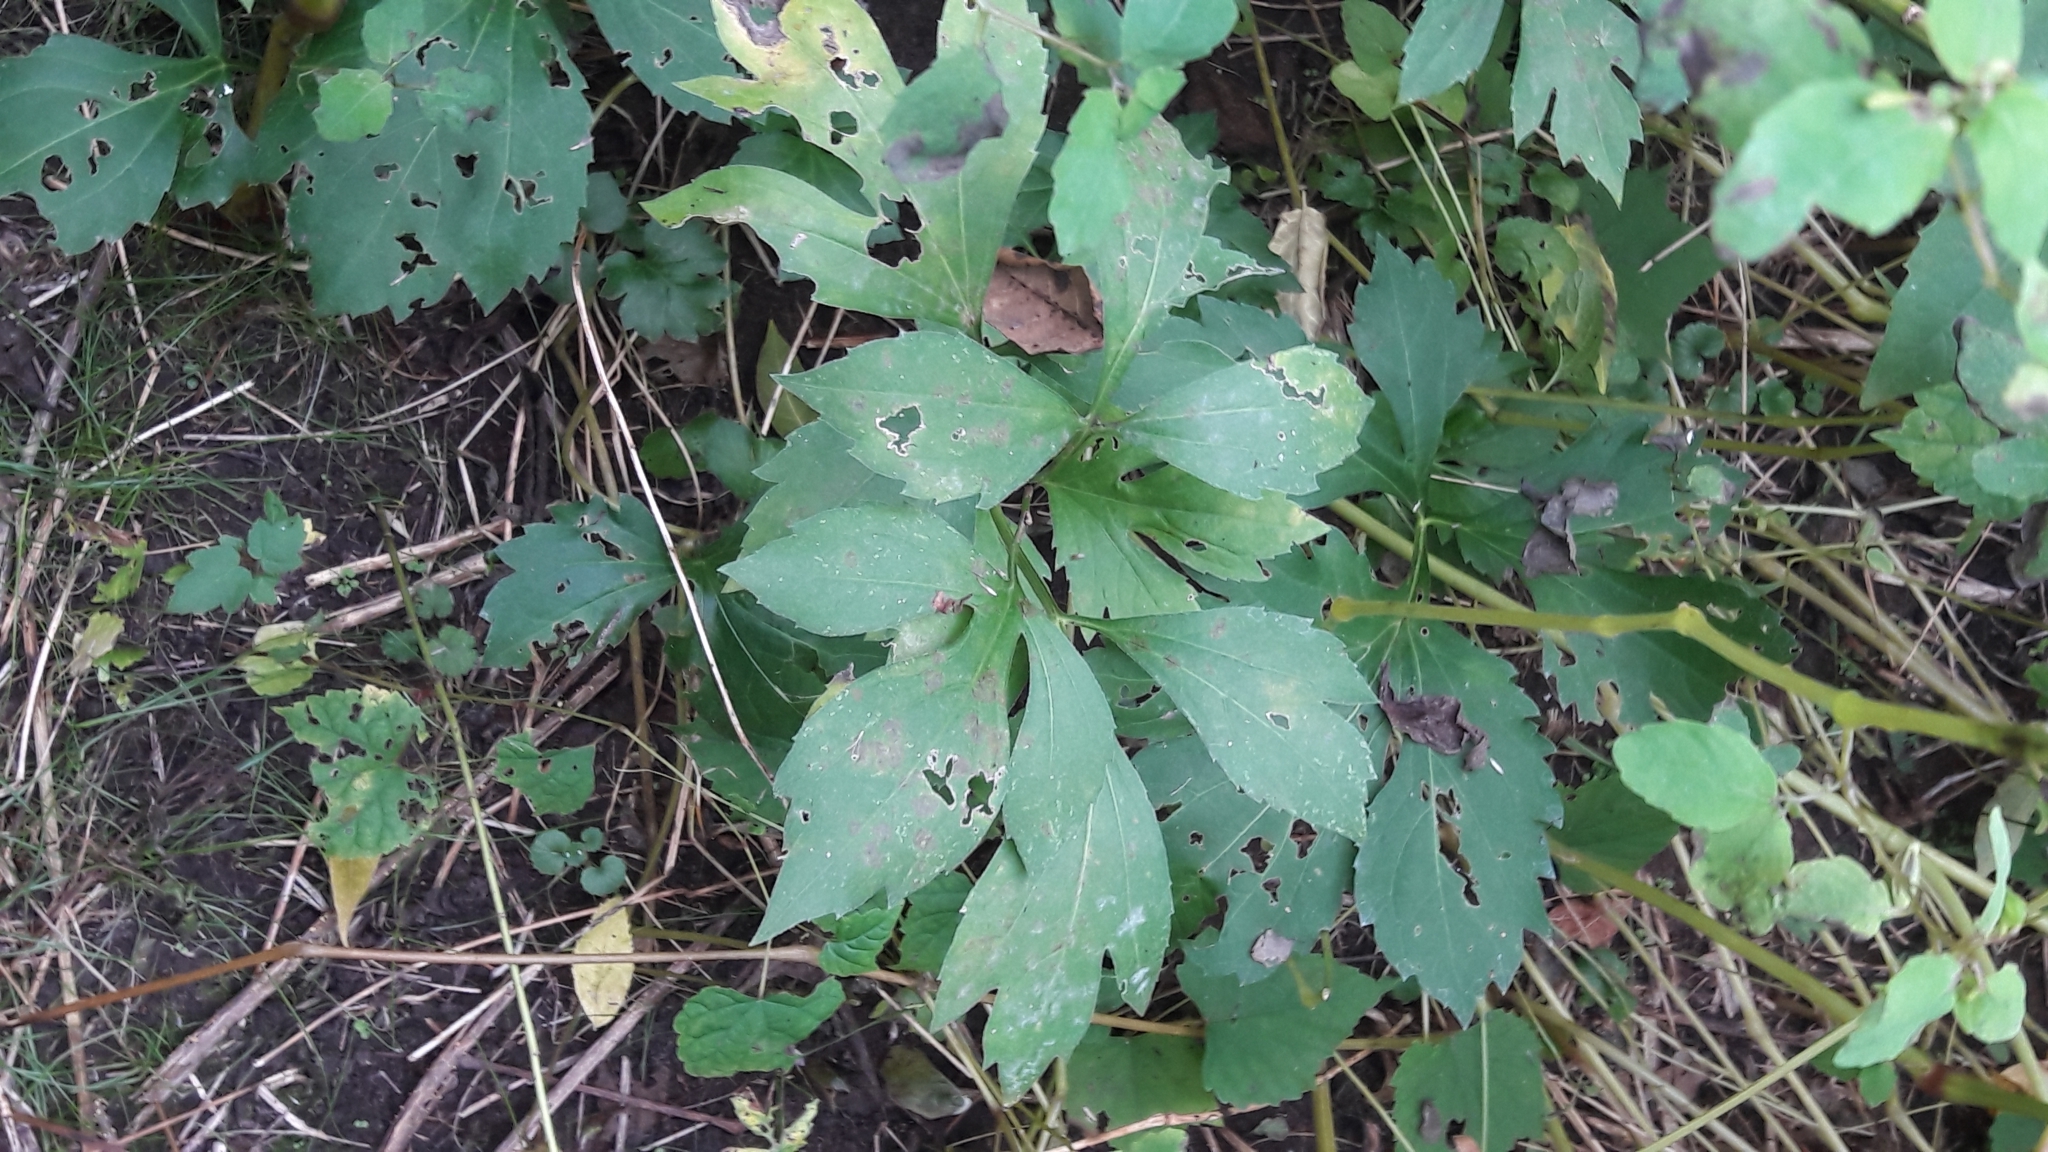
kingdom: Plantae
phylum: Tracheophyta
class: Magnoliopsida
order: Asterales
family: Asteraceae
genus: Rudbeckia
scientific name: Rudbeckia laciniata
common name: Coneflower
